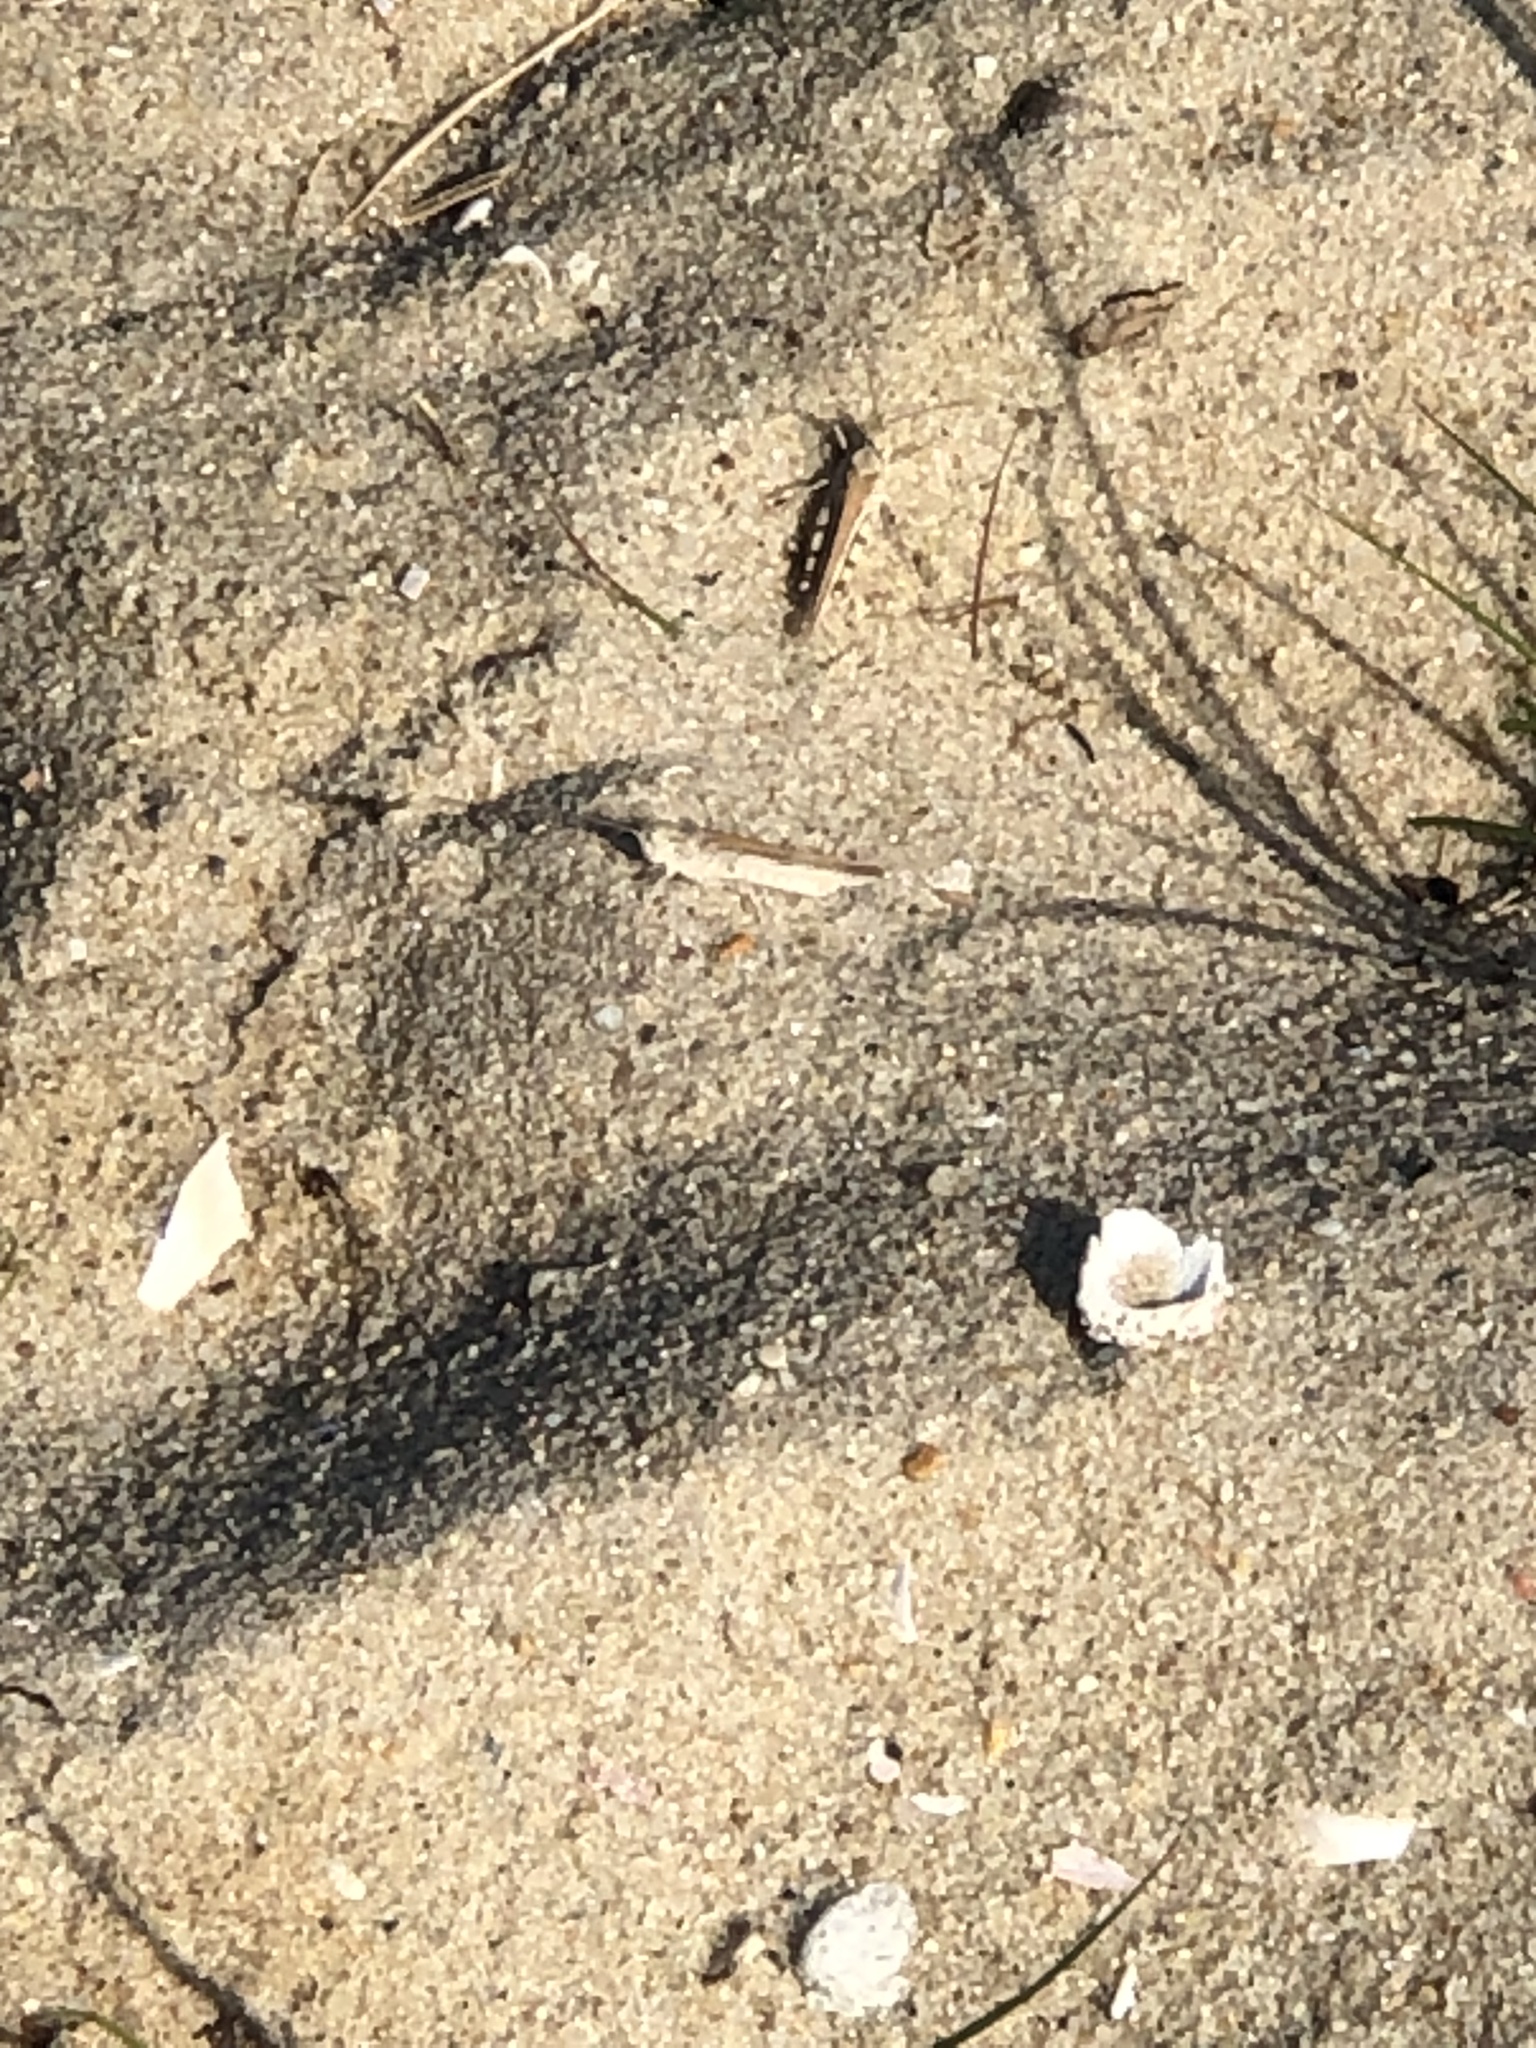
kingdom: Animalia
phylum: Arthropoda
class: Insecta
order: Orthoptera
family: Acrididae
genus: Trimerotropis
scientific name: Trimerotropis maritima
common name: Seaside locust
